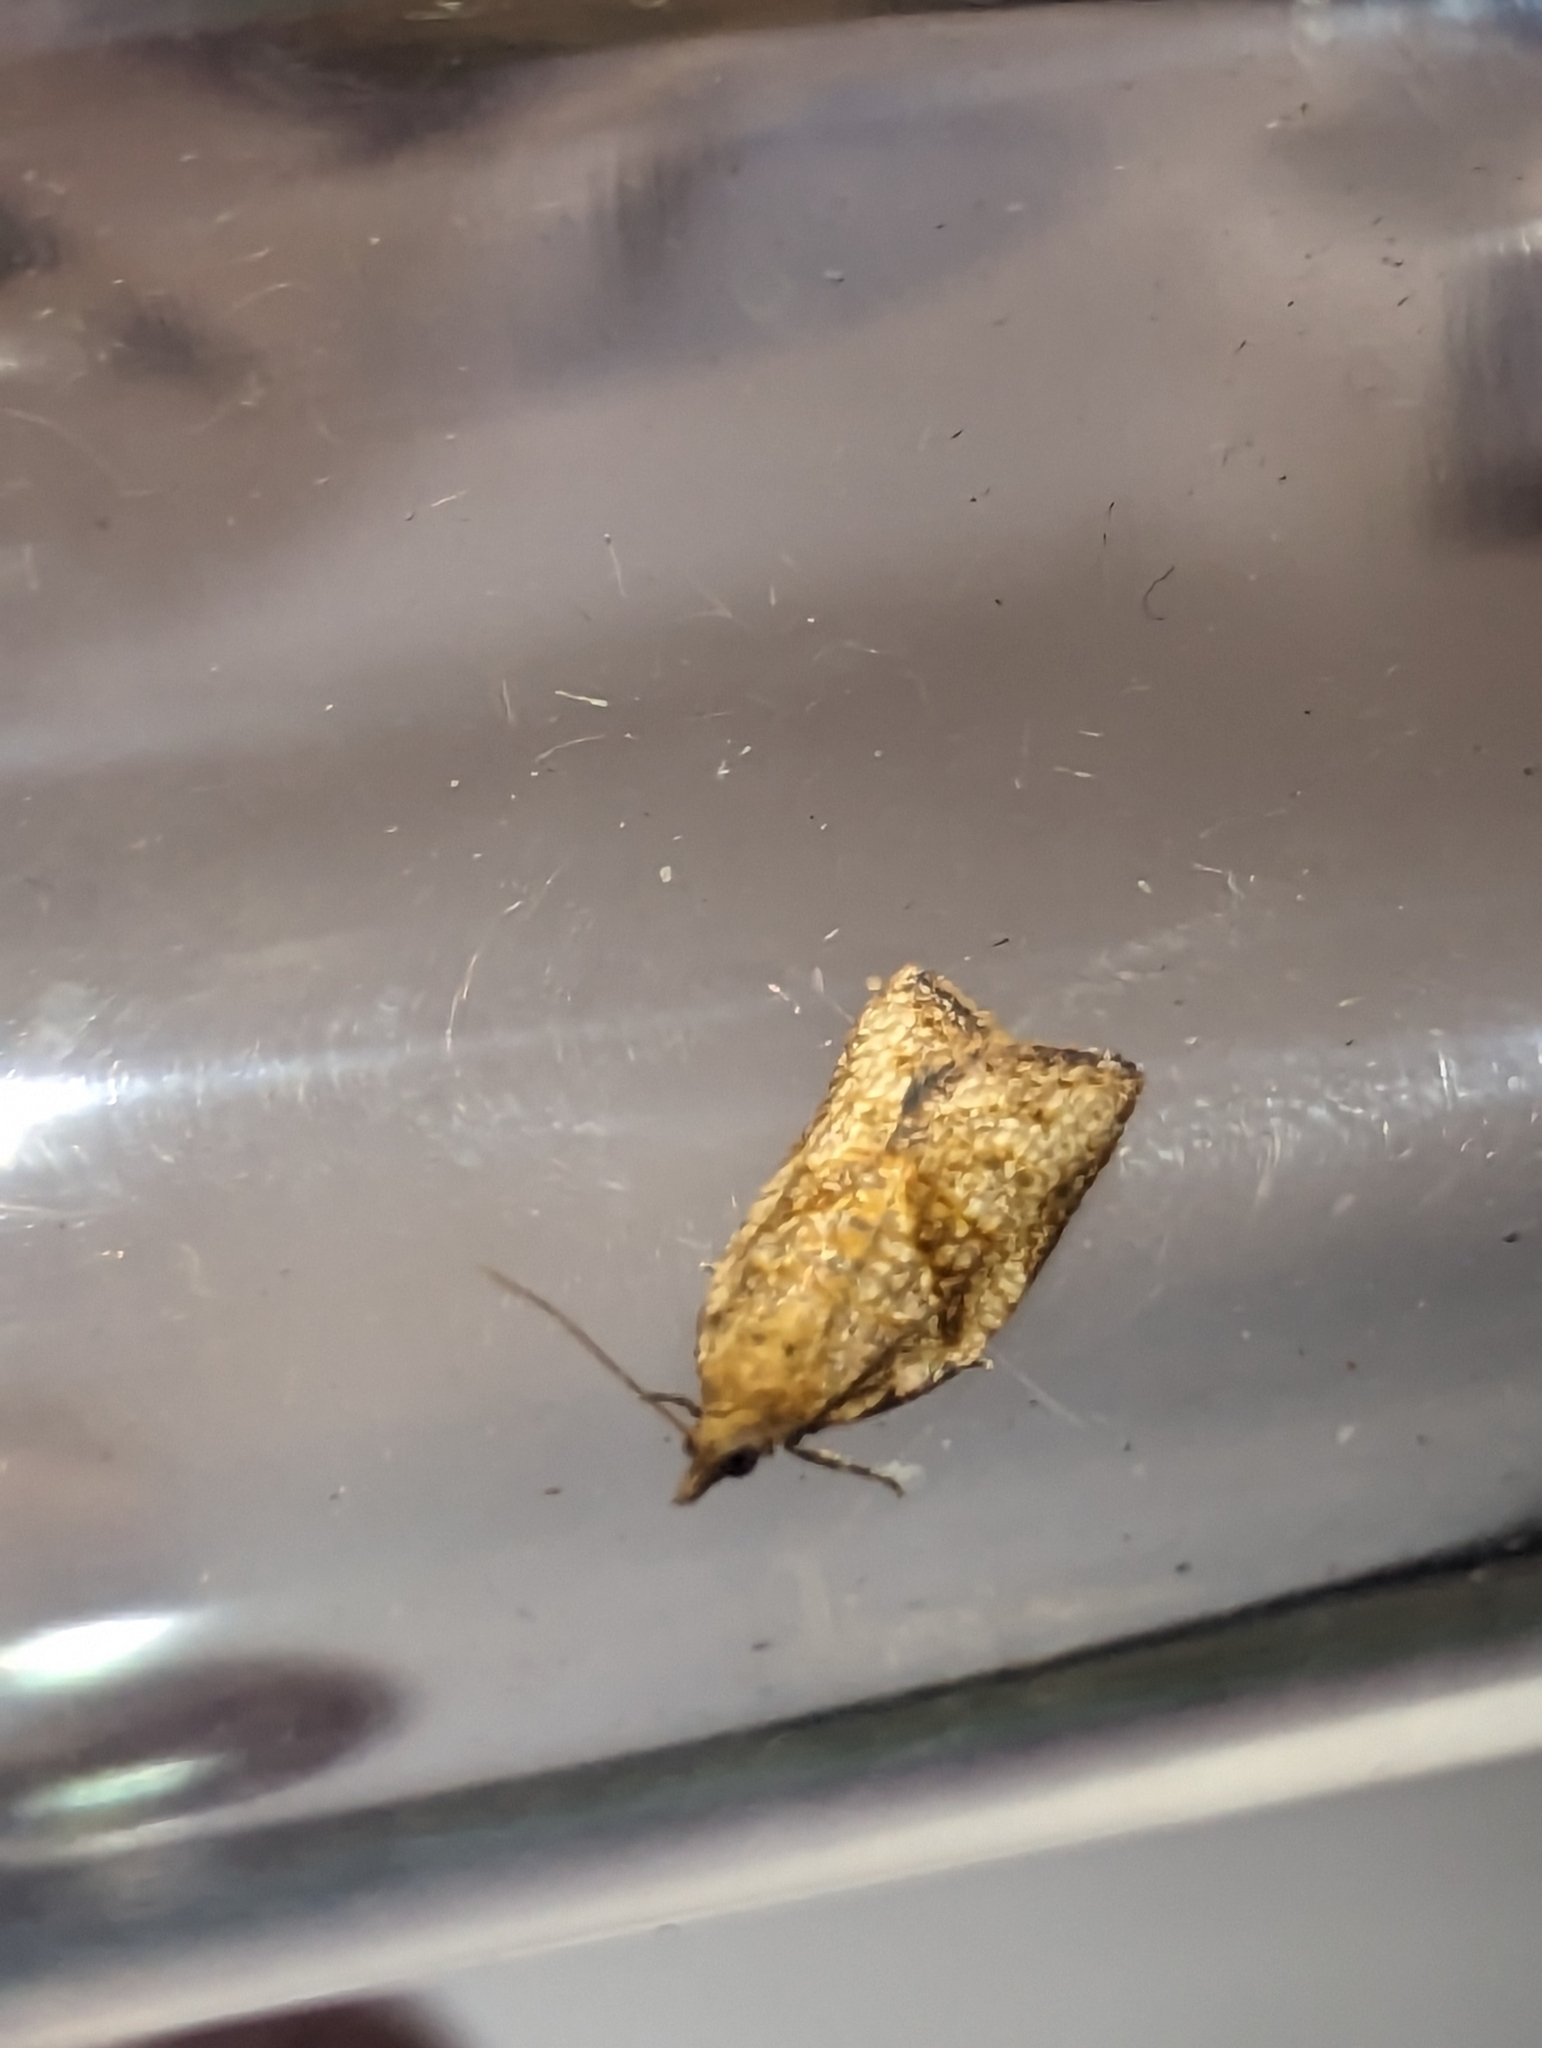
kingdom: Animalia
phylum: Arthropoda
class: Insecta
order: Lepidoptera
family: Tortricidae
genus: Epiphyas
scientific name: Epiphyas postvittana
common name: Light brown apple moth
